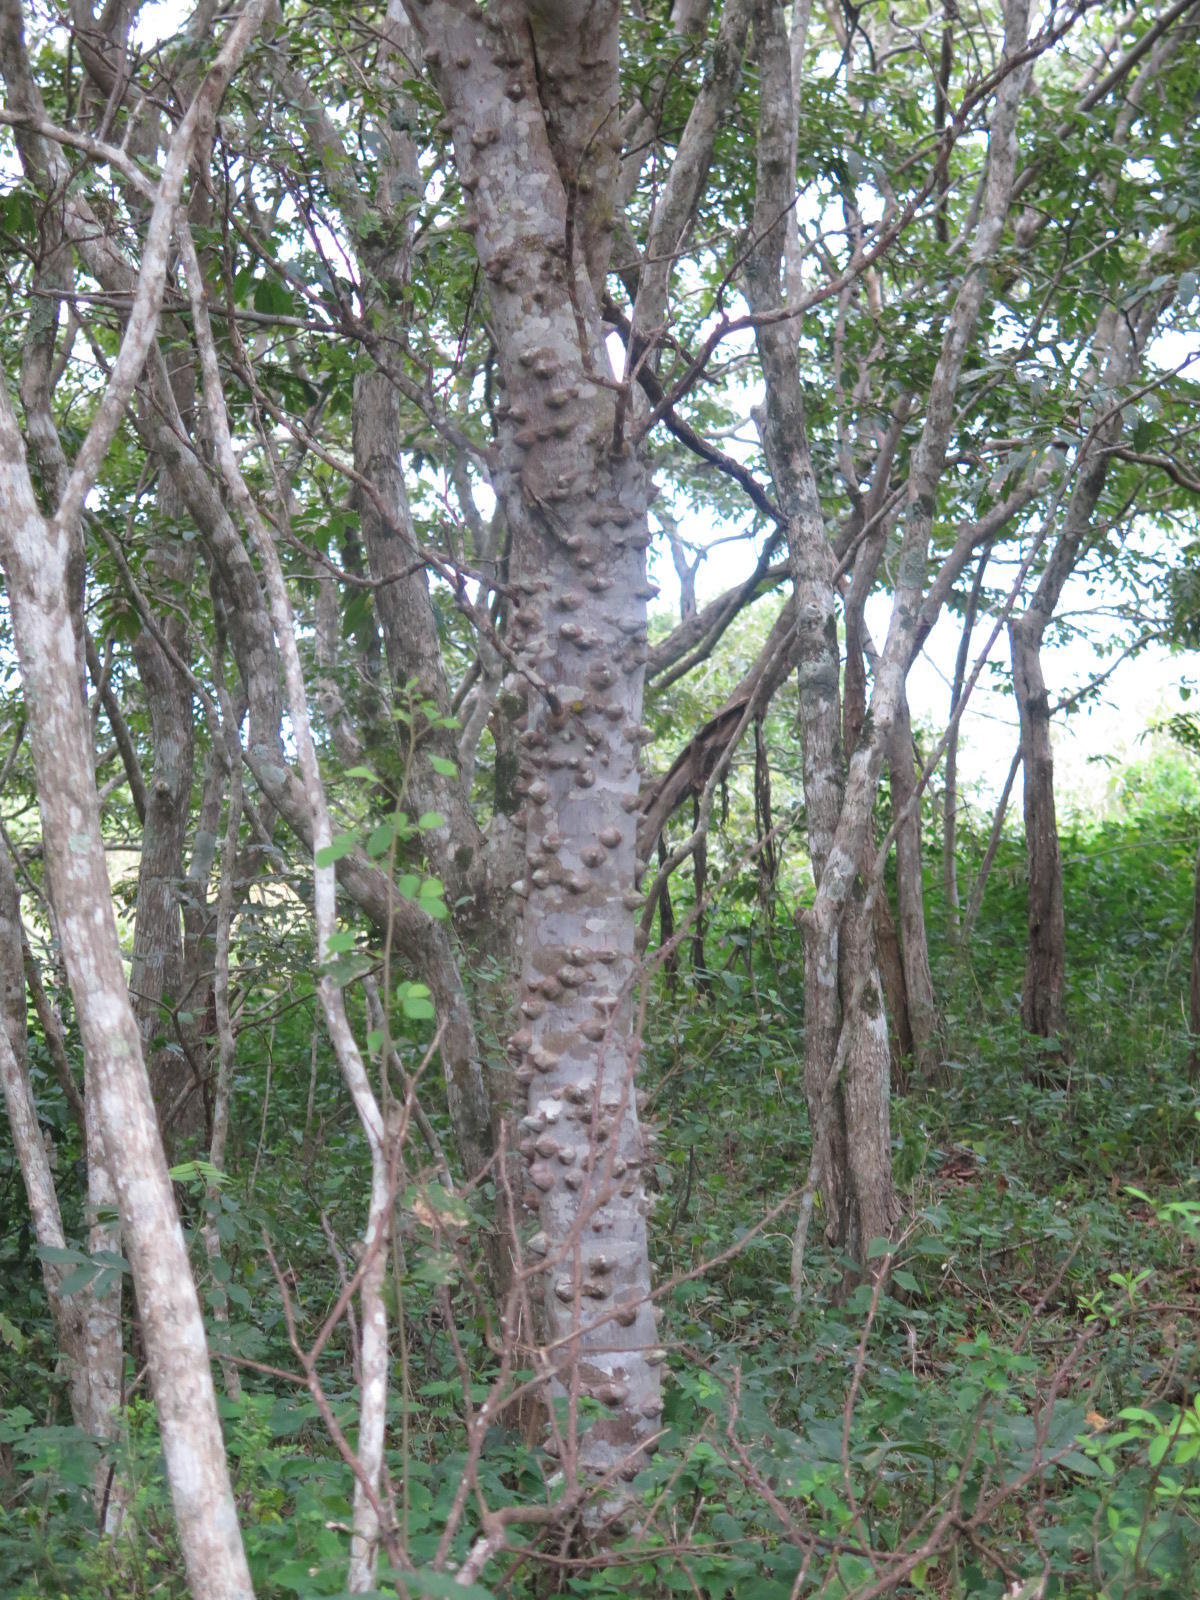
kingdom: Plantae
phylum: Tracheophyta
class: Magnoliopsida
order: Sapindales
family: Rutaceae
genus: Zanthoxylum
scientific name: Zanthoxylum davyi
